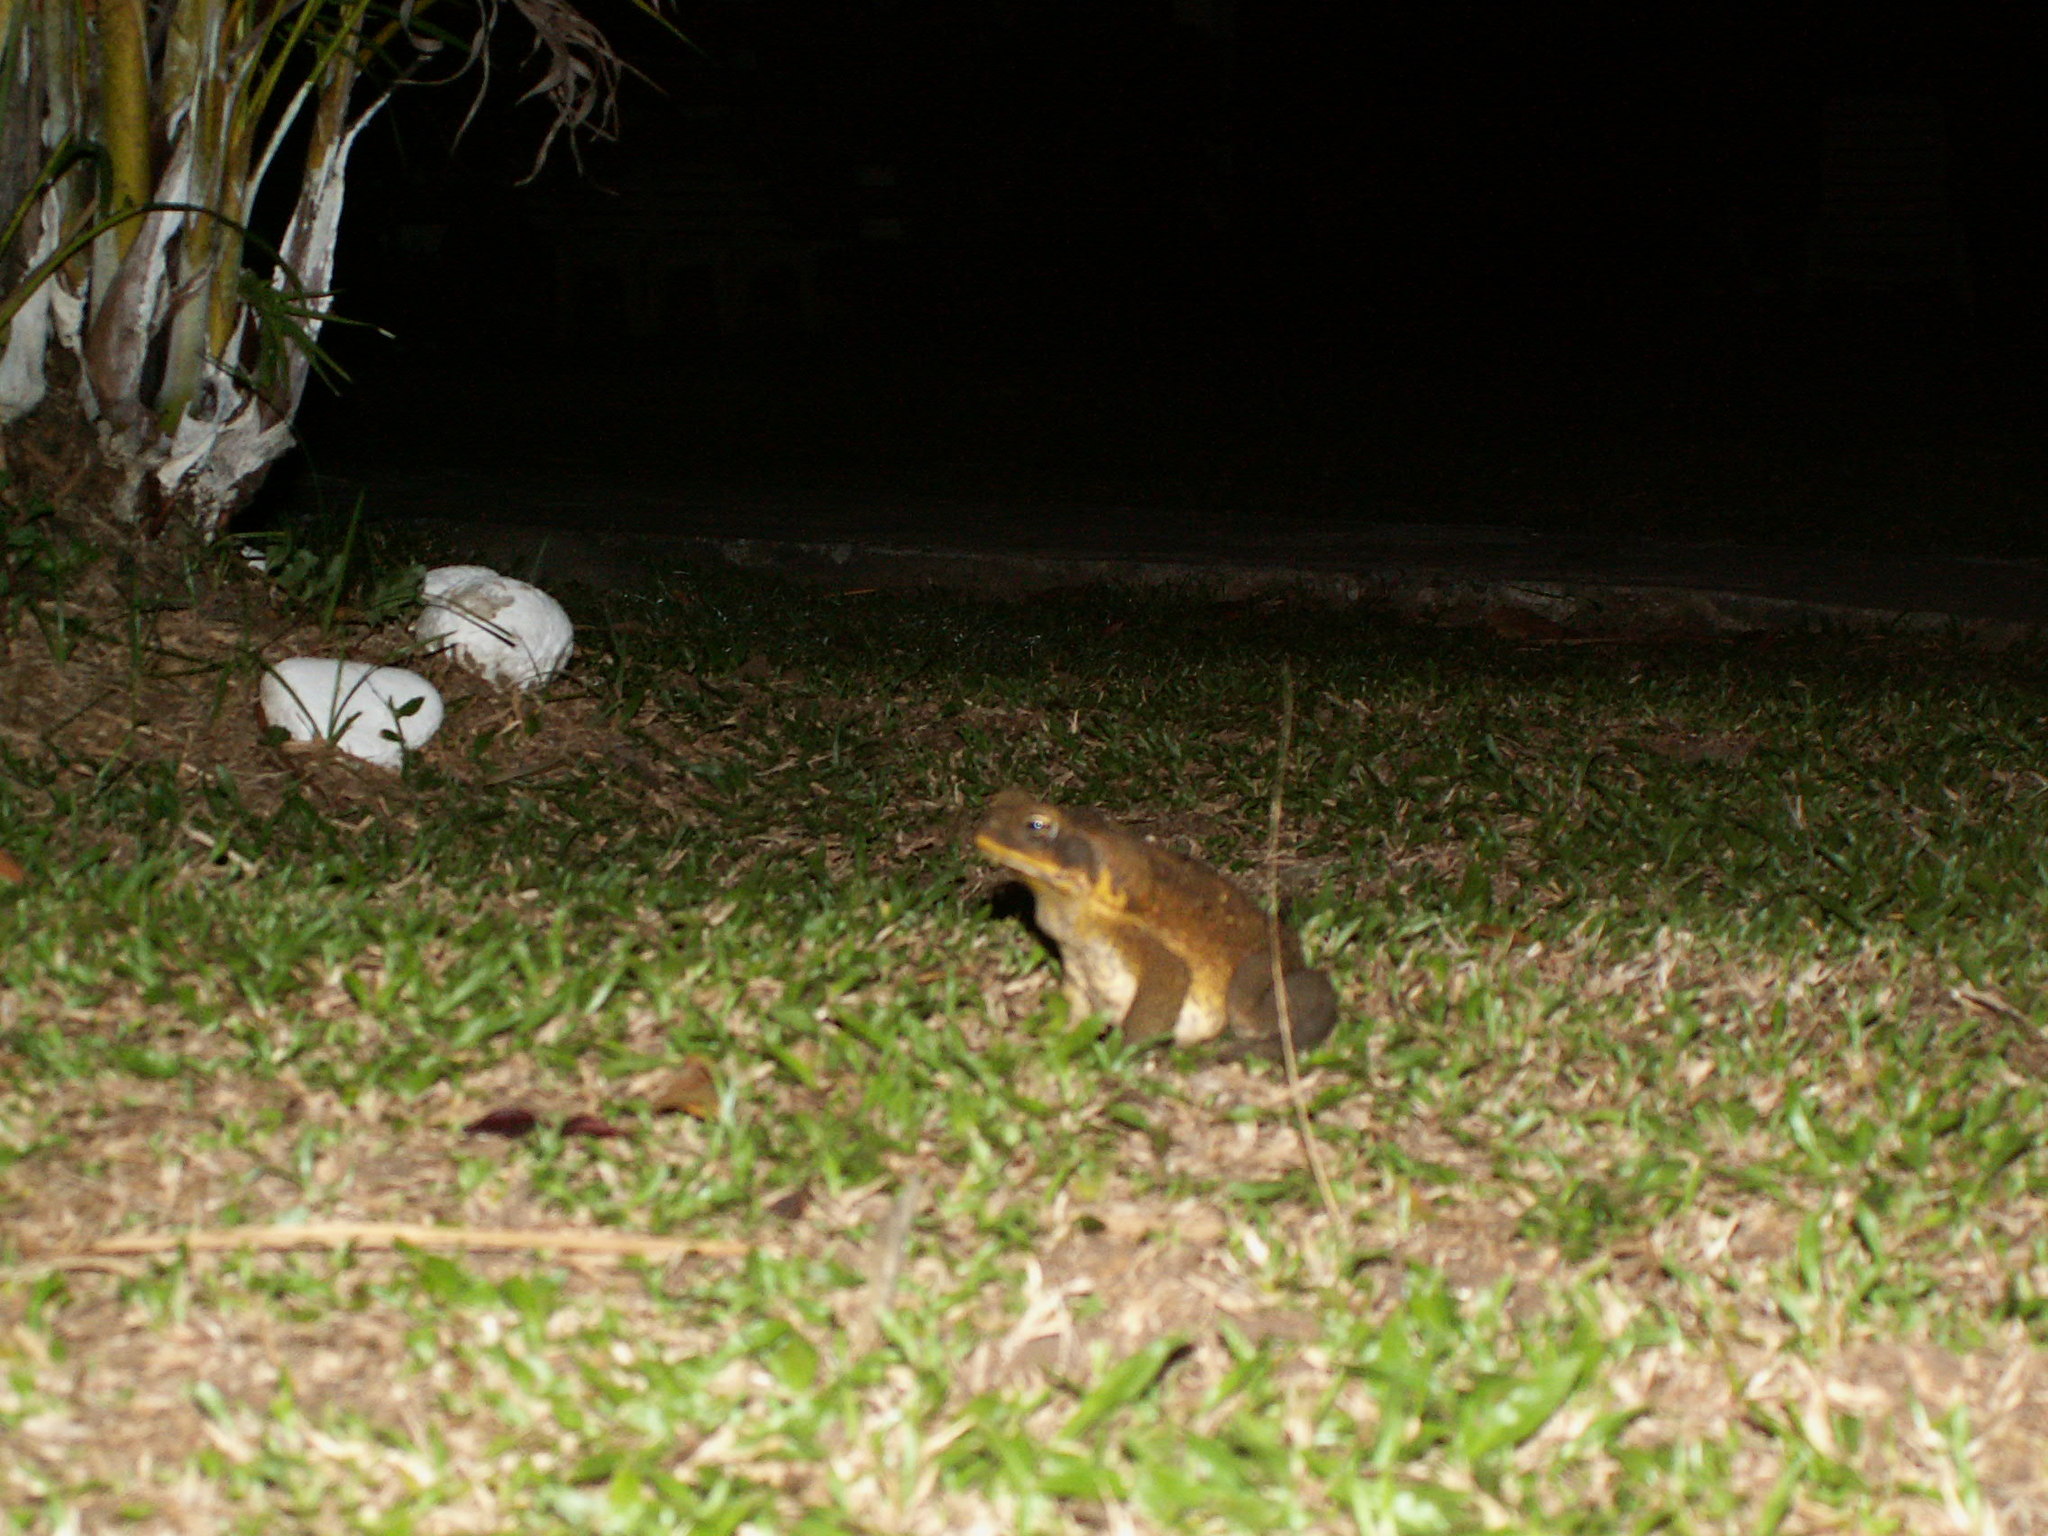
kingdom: Animalia
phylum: Chordata
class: Amphibia
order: Anura
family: Bufonidae
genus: Rhinella
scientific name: Rhinella marina
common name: Cane toad
